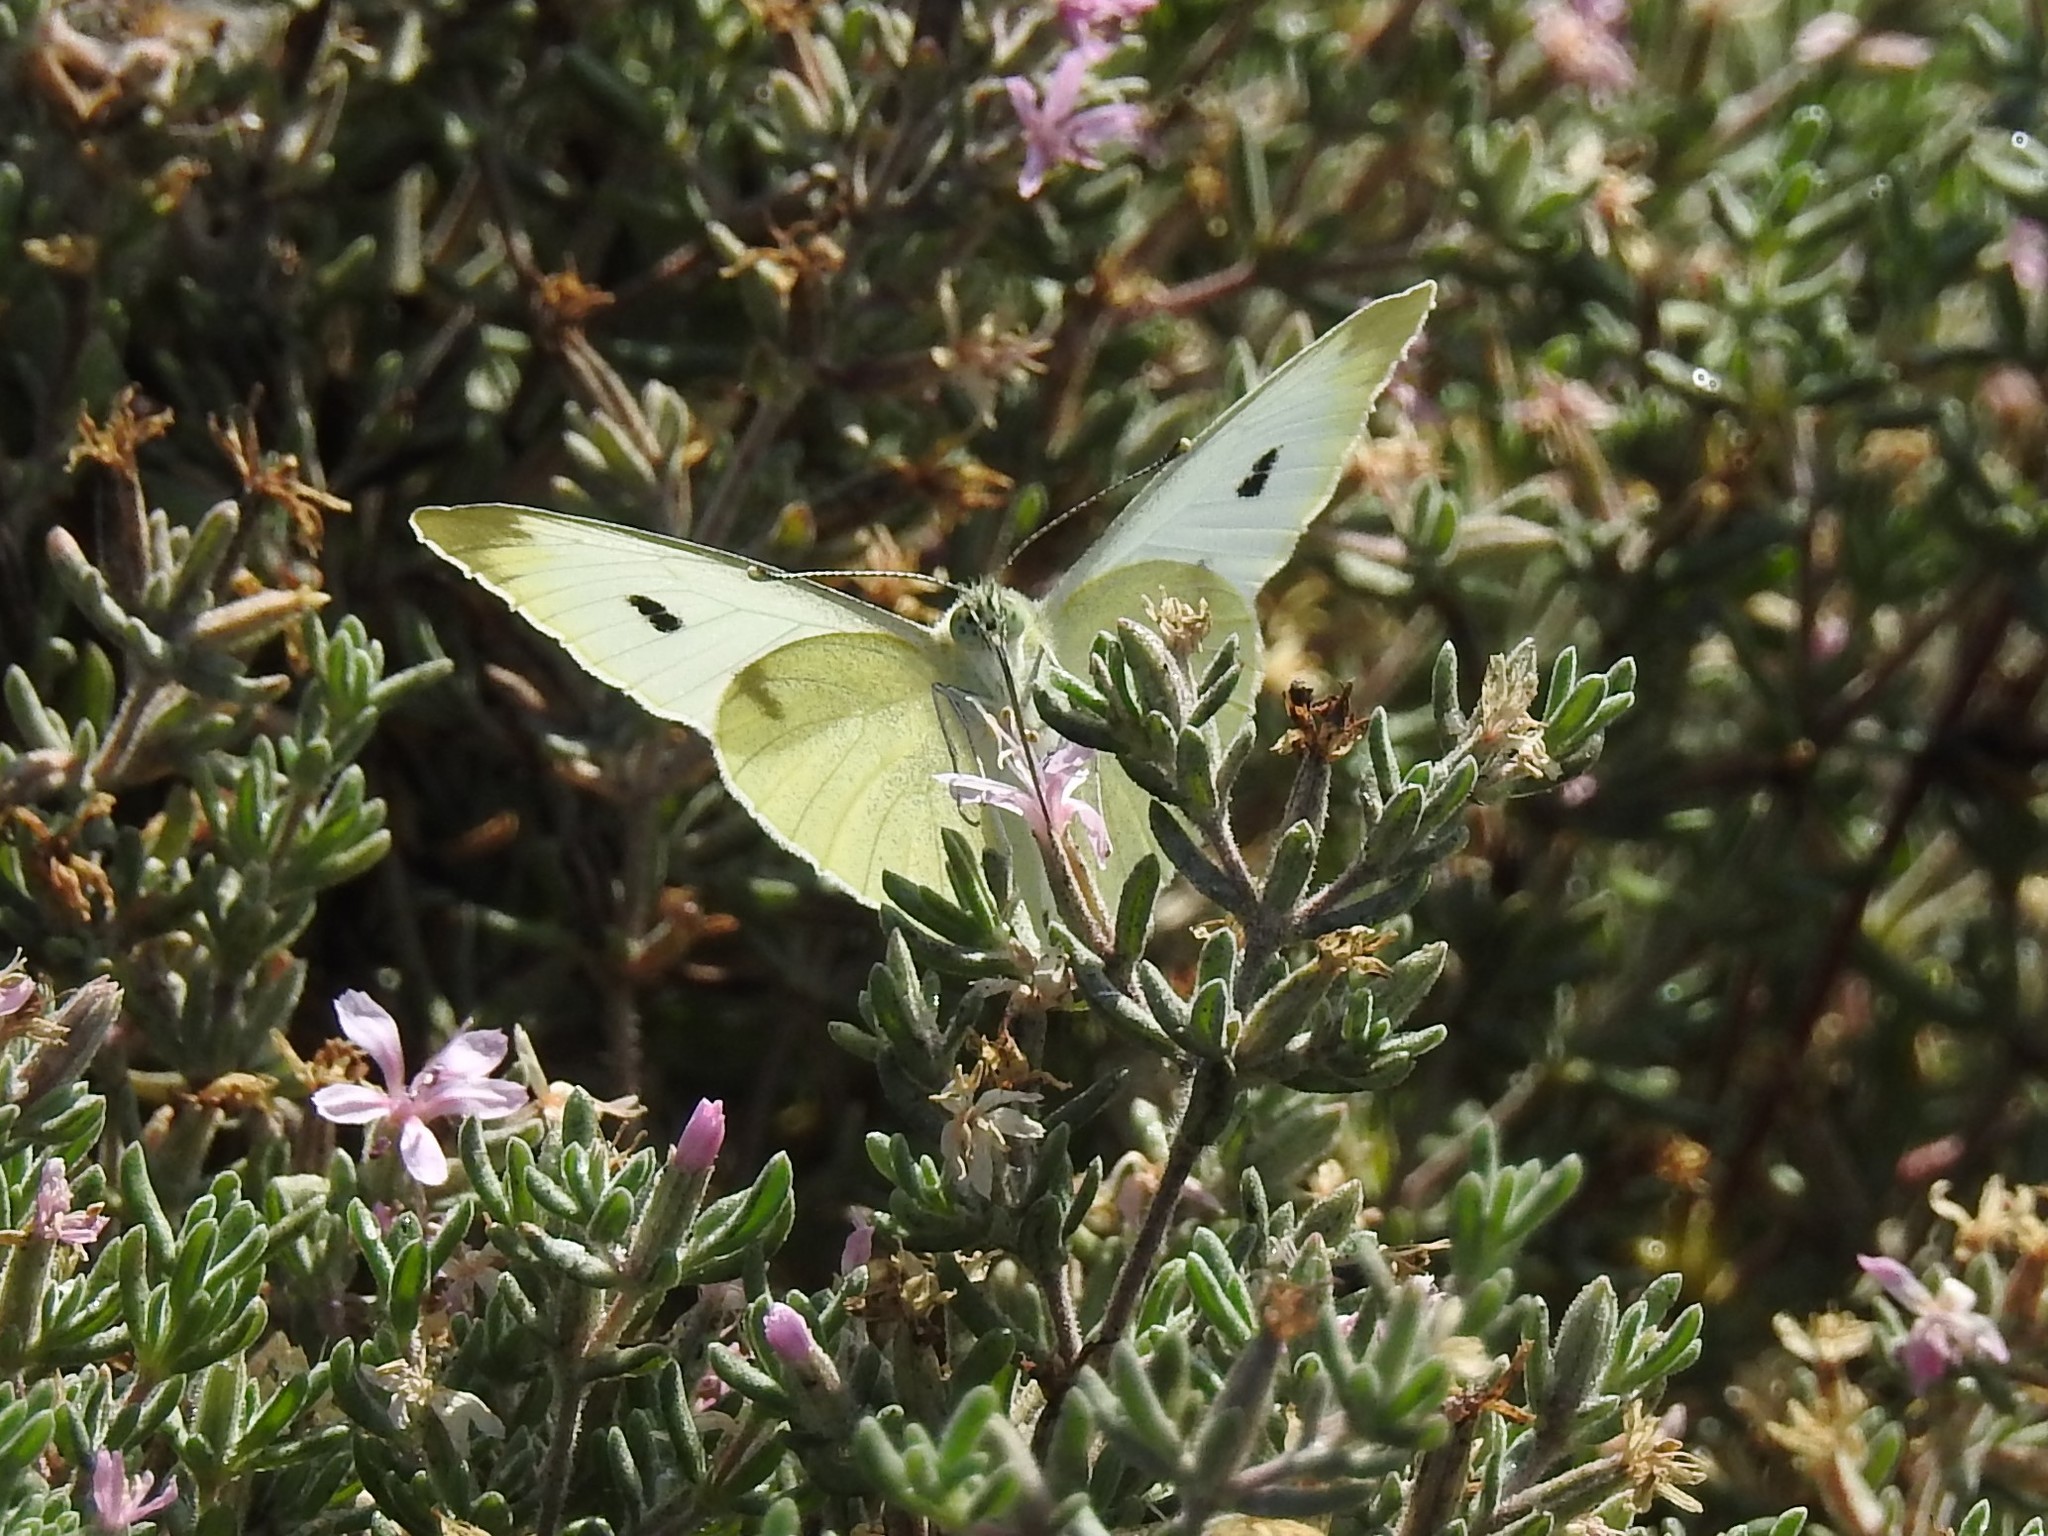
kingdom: Animalia
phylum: Arthropoda
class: Insecta
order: Lepidoptera
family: Pieridae
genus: Pieris
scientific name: Pieris rapae
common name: Small white
